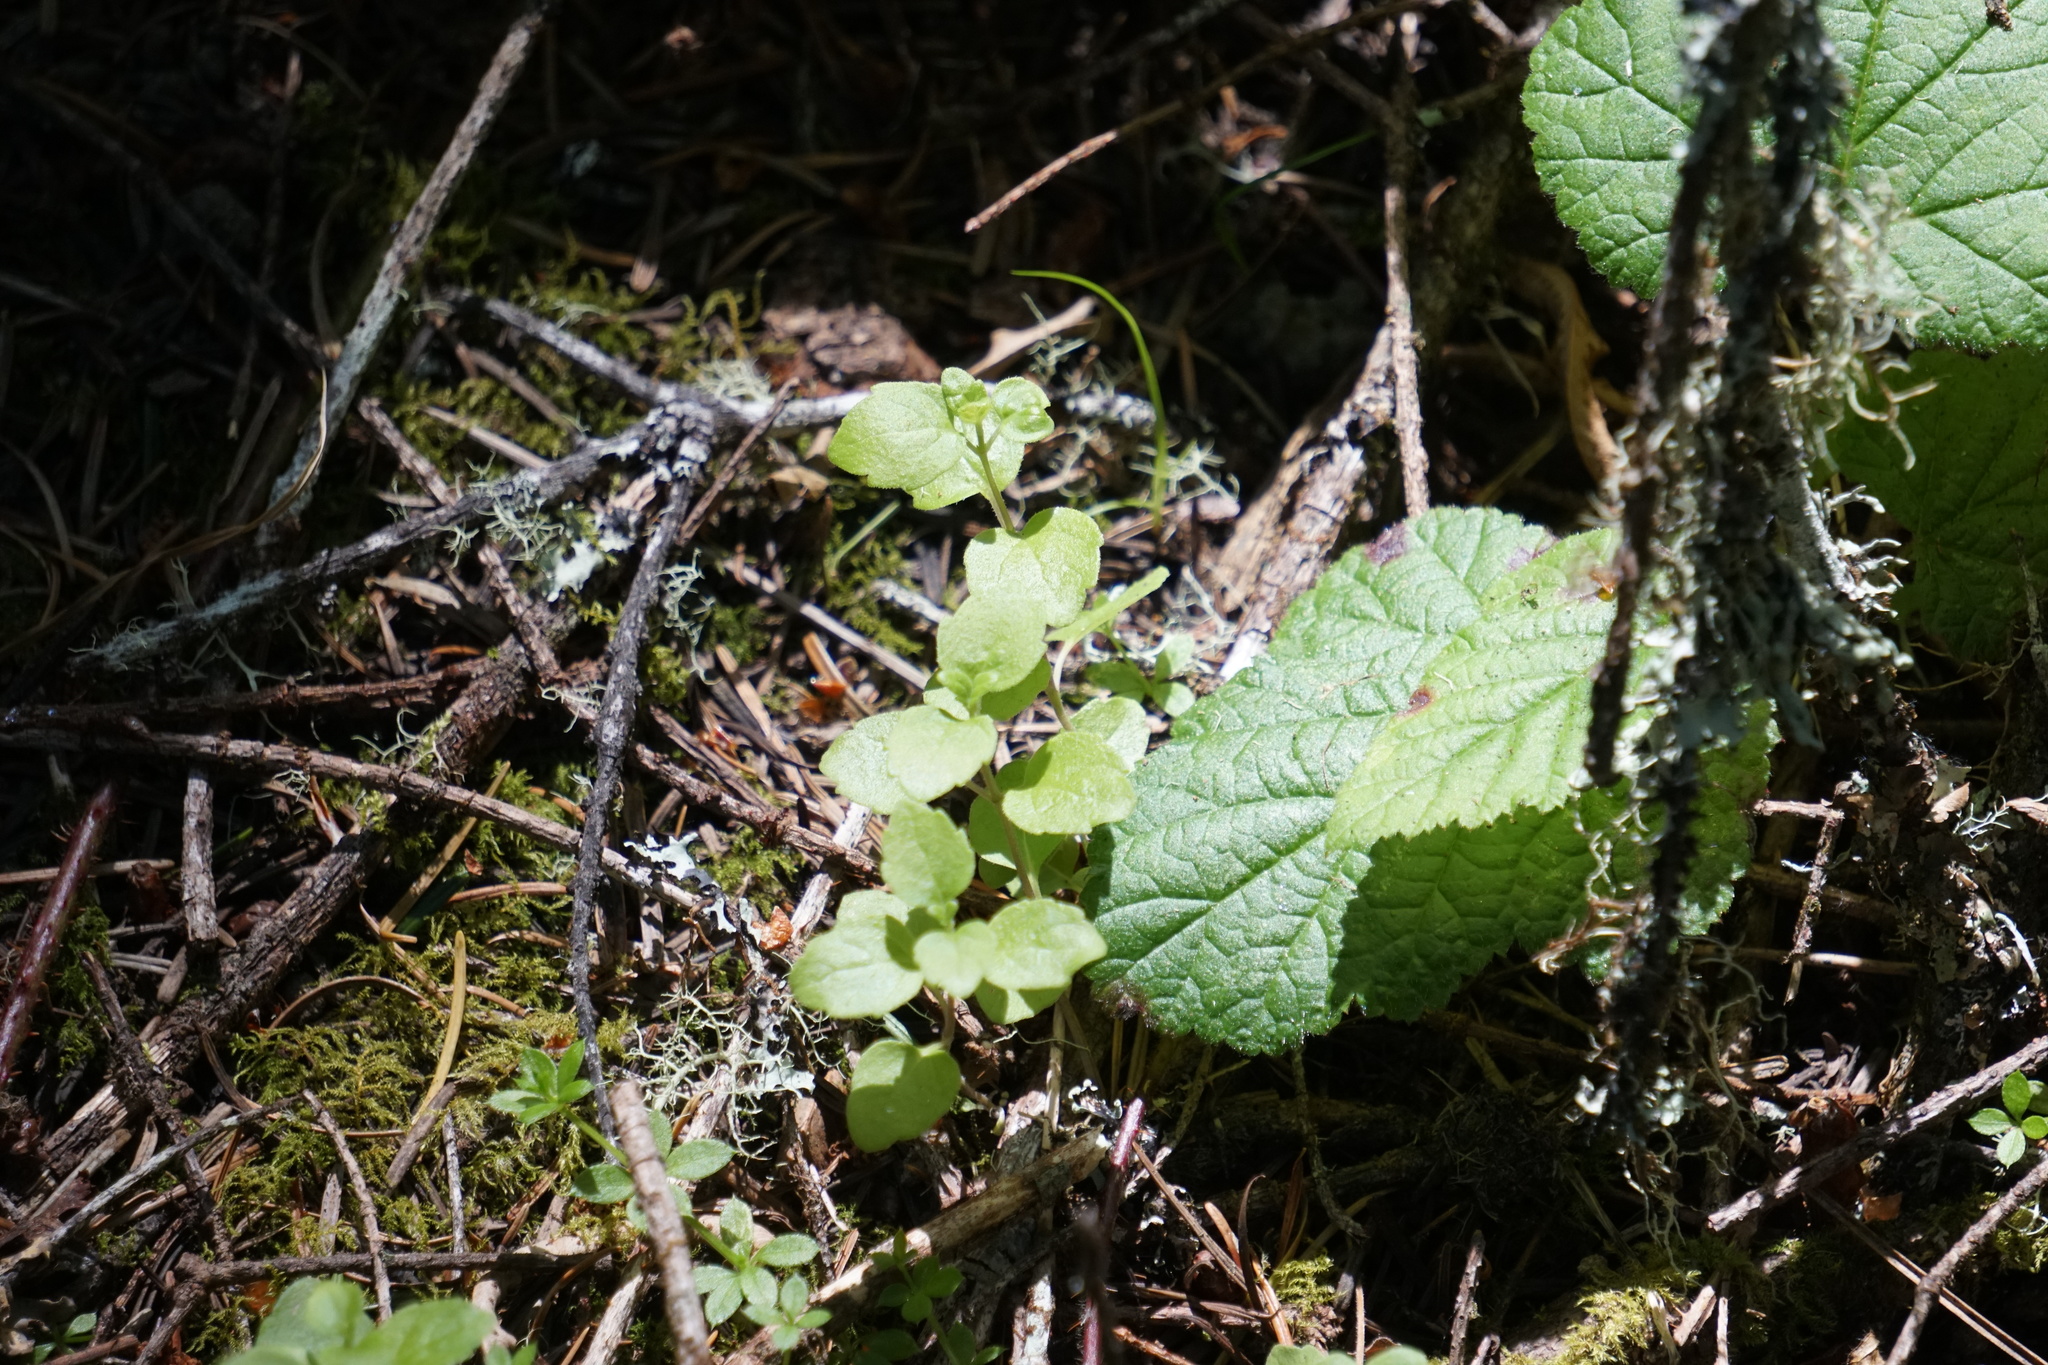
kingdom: Plantae
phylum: Tracheophyta
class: Magnoliopsida
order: Lamiales
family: Lamiaceae
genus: Micromeria
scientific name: Micromeria douglasii
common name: Yerba buena
